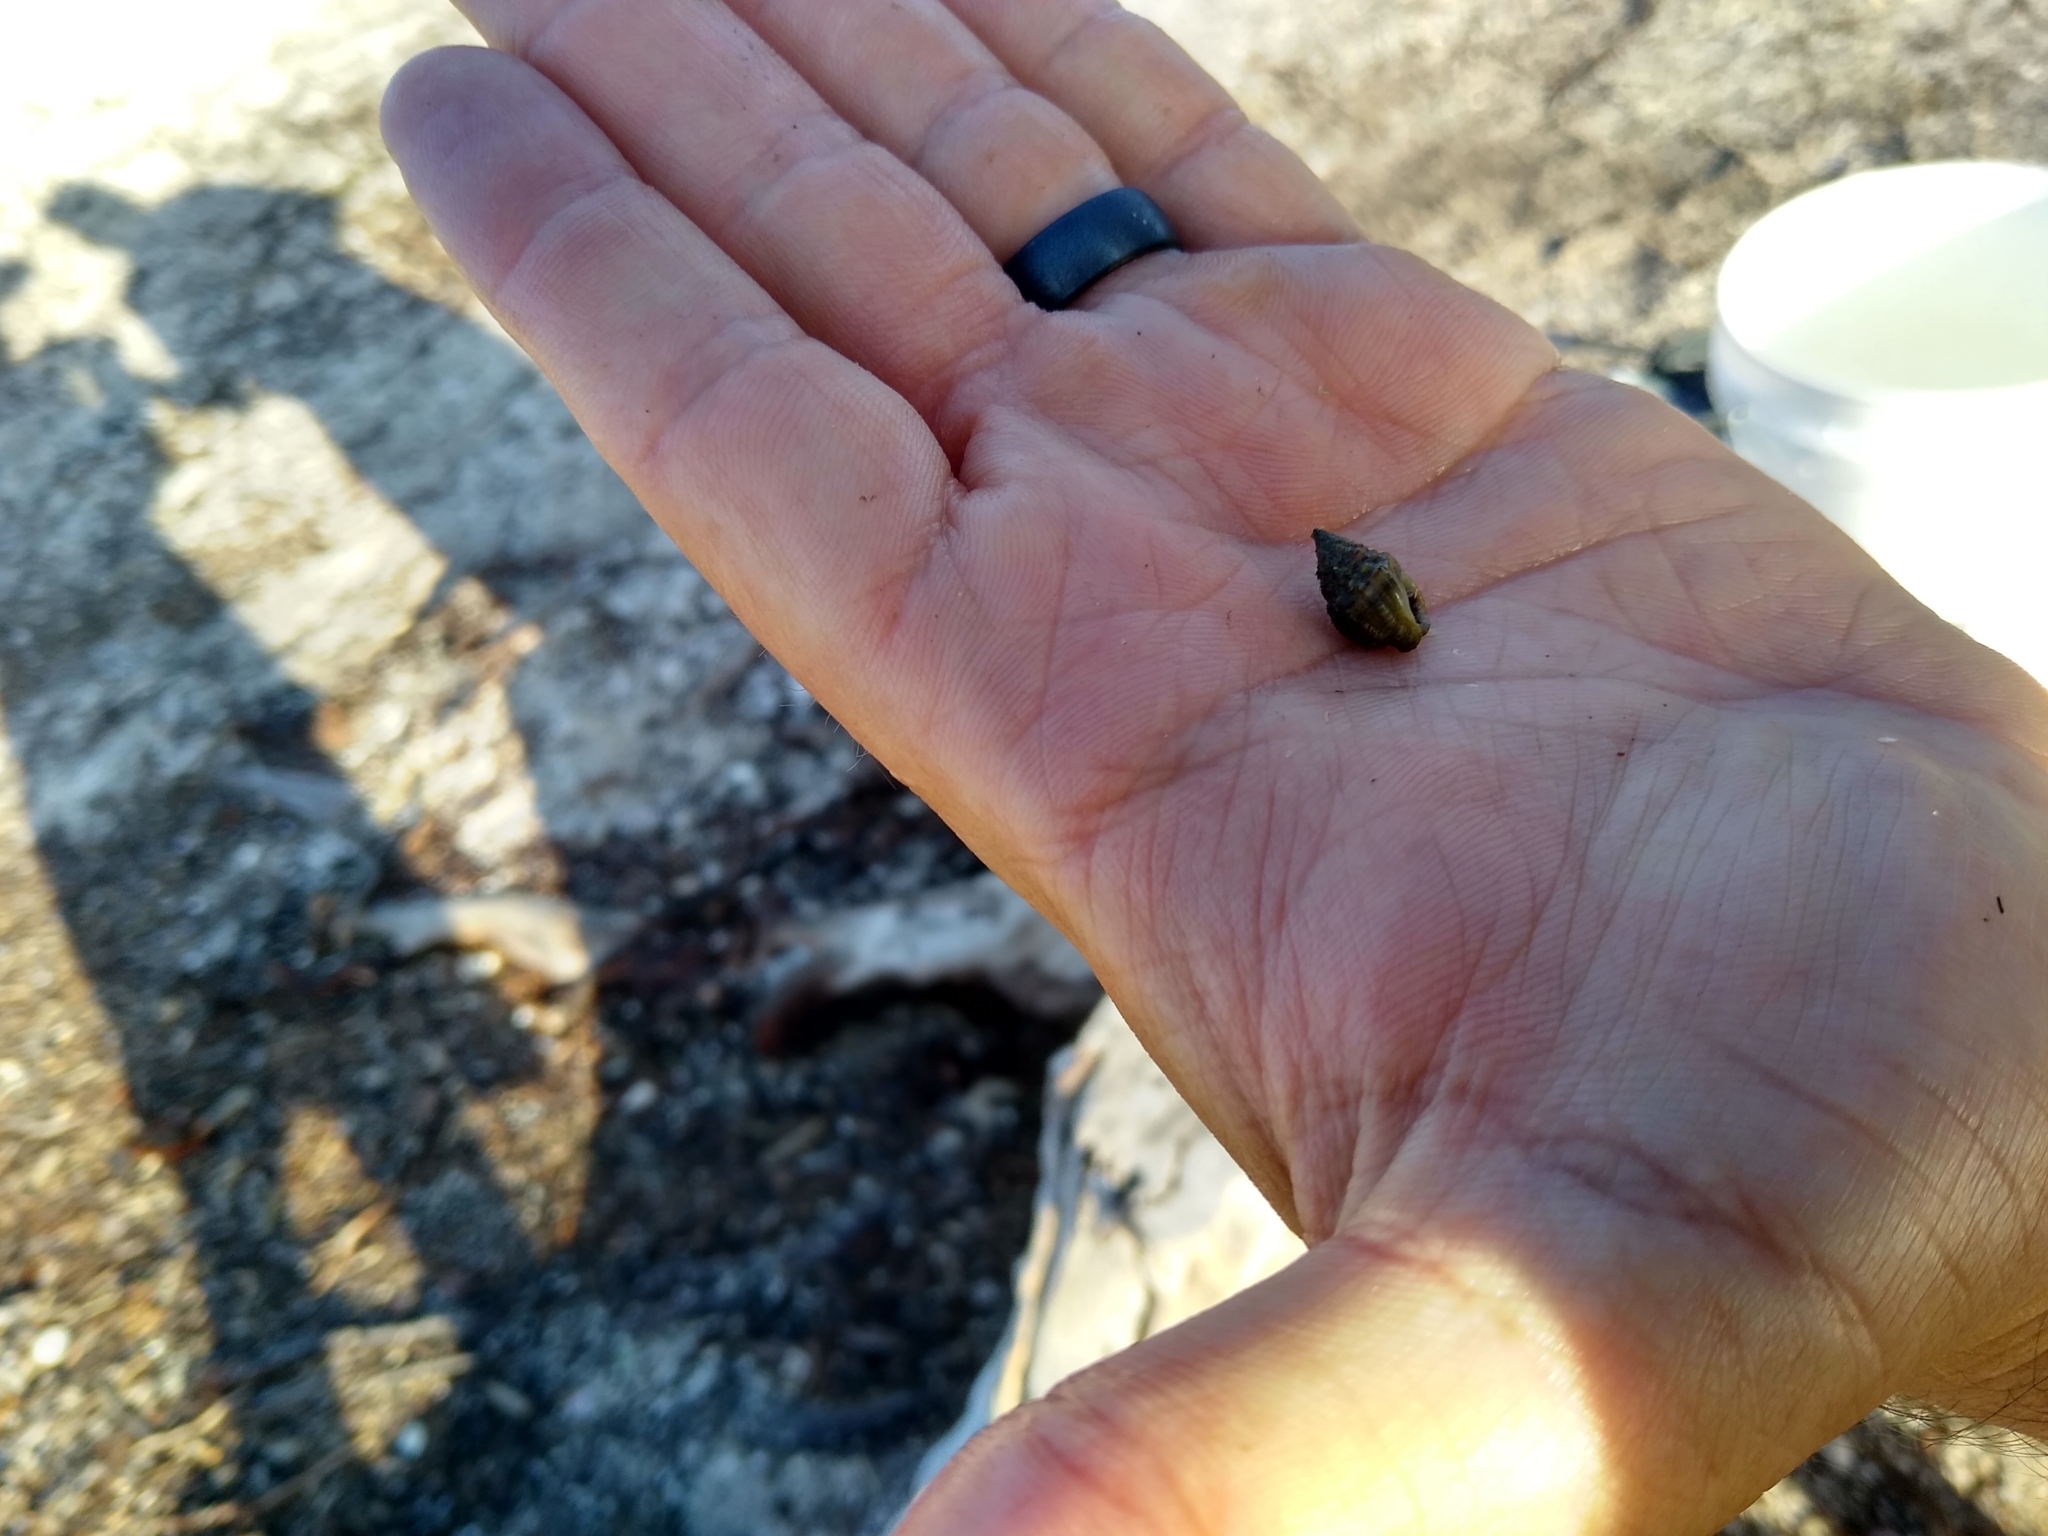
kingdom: Animalia
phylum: Mollusca
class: Gastropoda
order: Neogastropoda
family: Nassariidae
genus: Phrontis
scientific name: Phrontis vibex
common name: Bruised nassa
